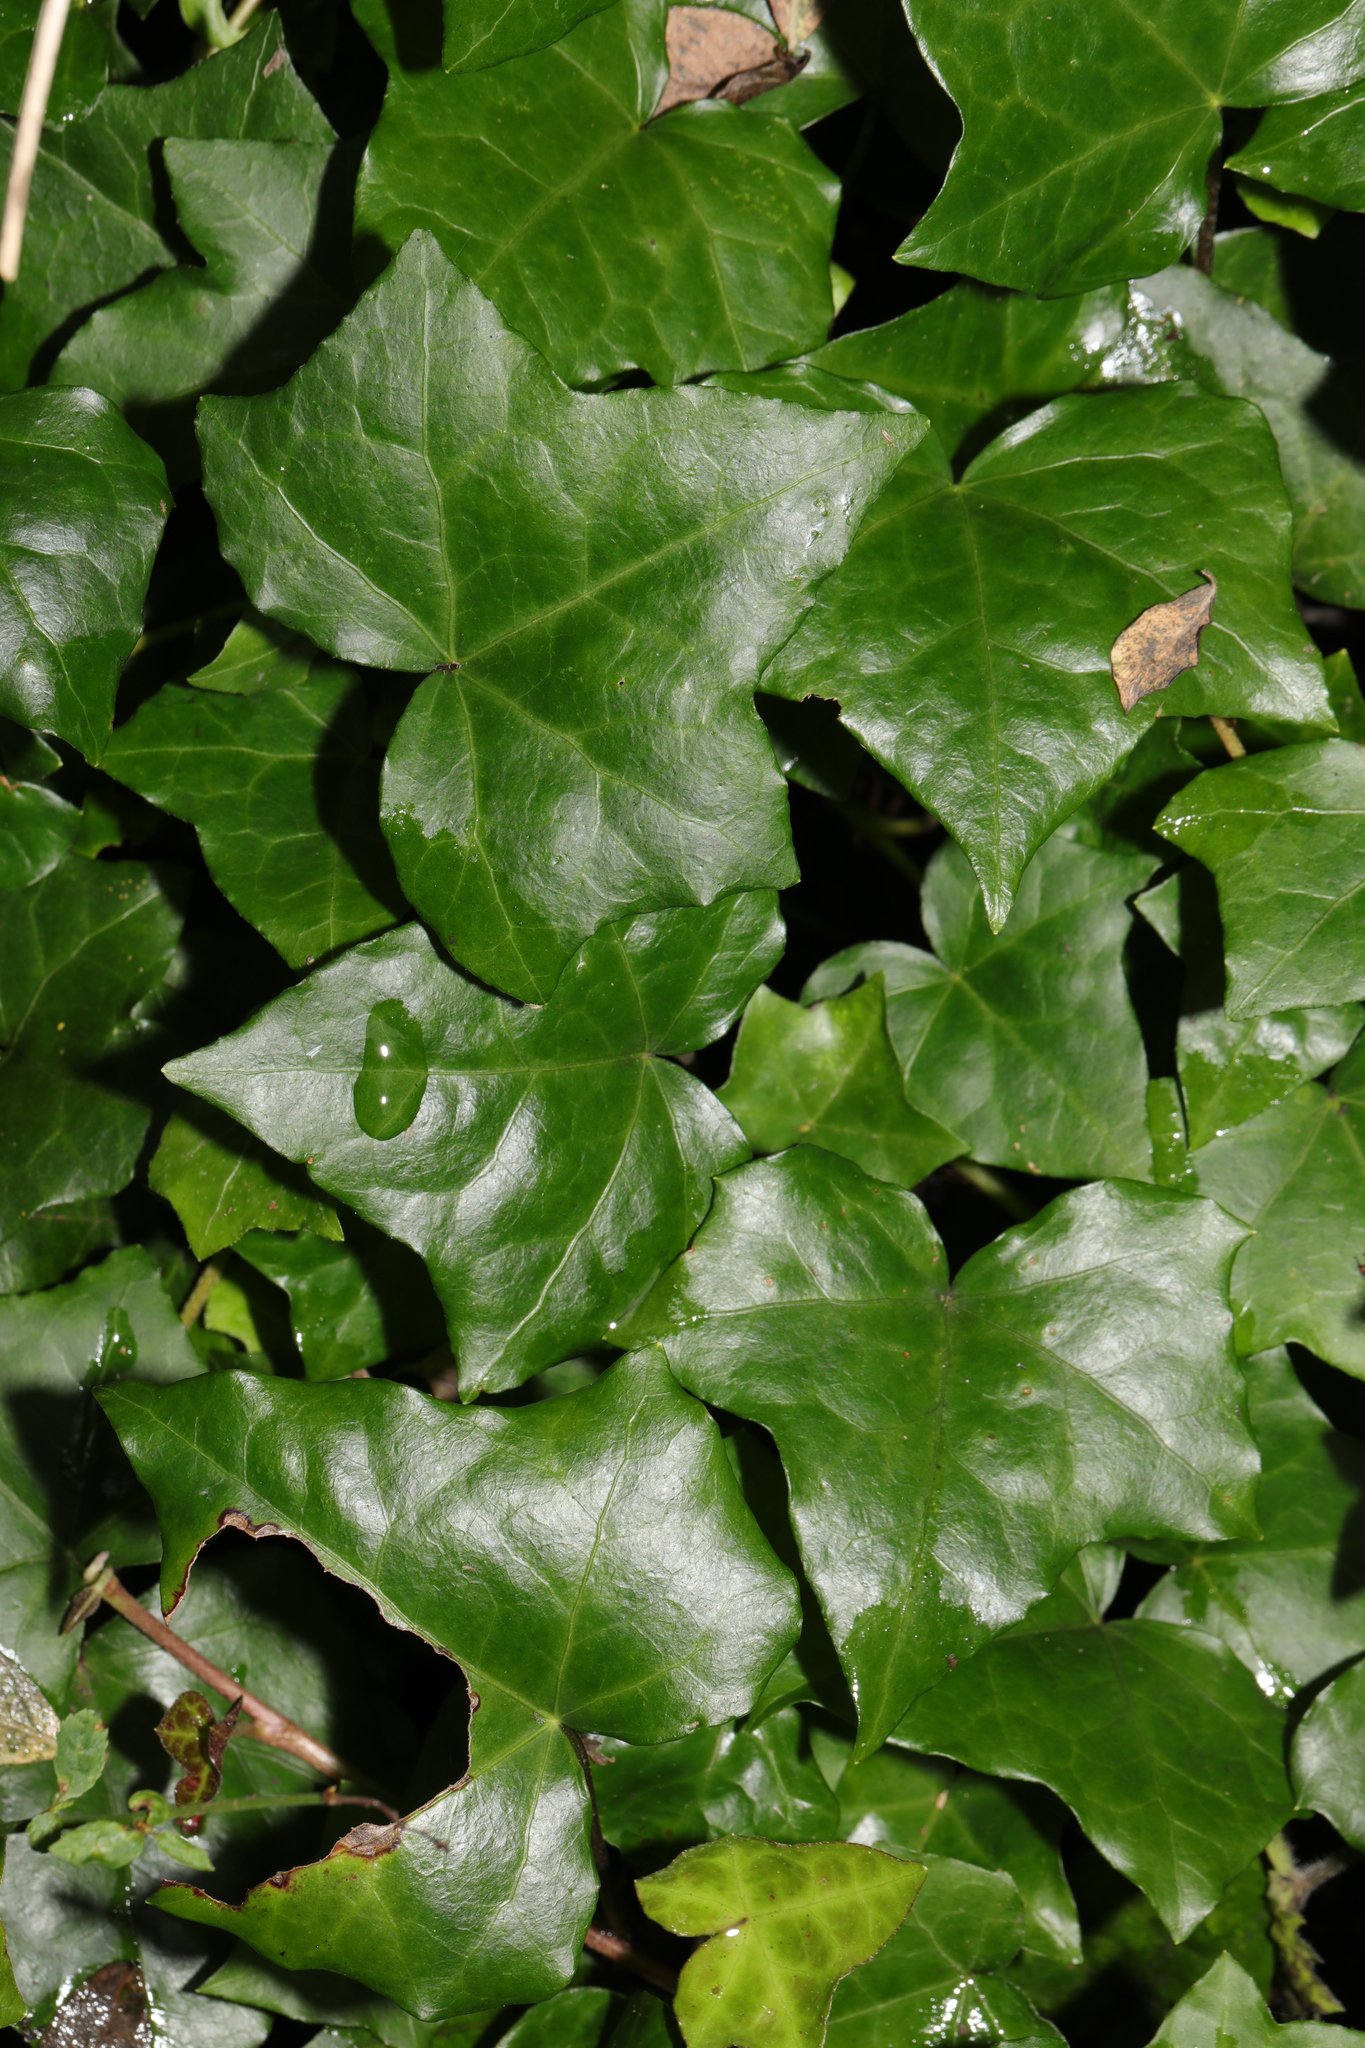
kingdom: Plantae
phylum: Tracheophyta
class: Magnoliopsida
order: Apiales
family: Araliaceae
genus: Hedera
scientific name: Hedera helix
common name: Ivy
